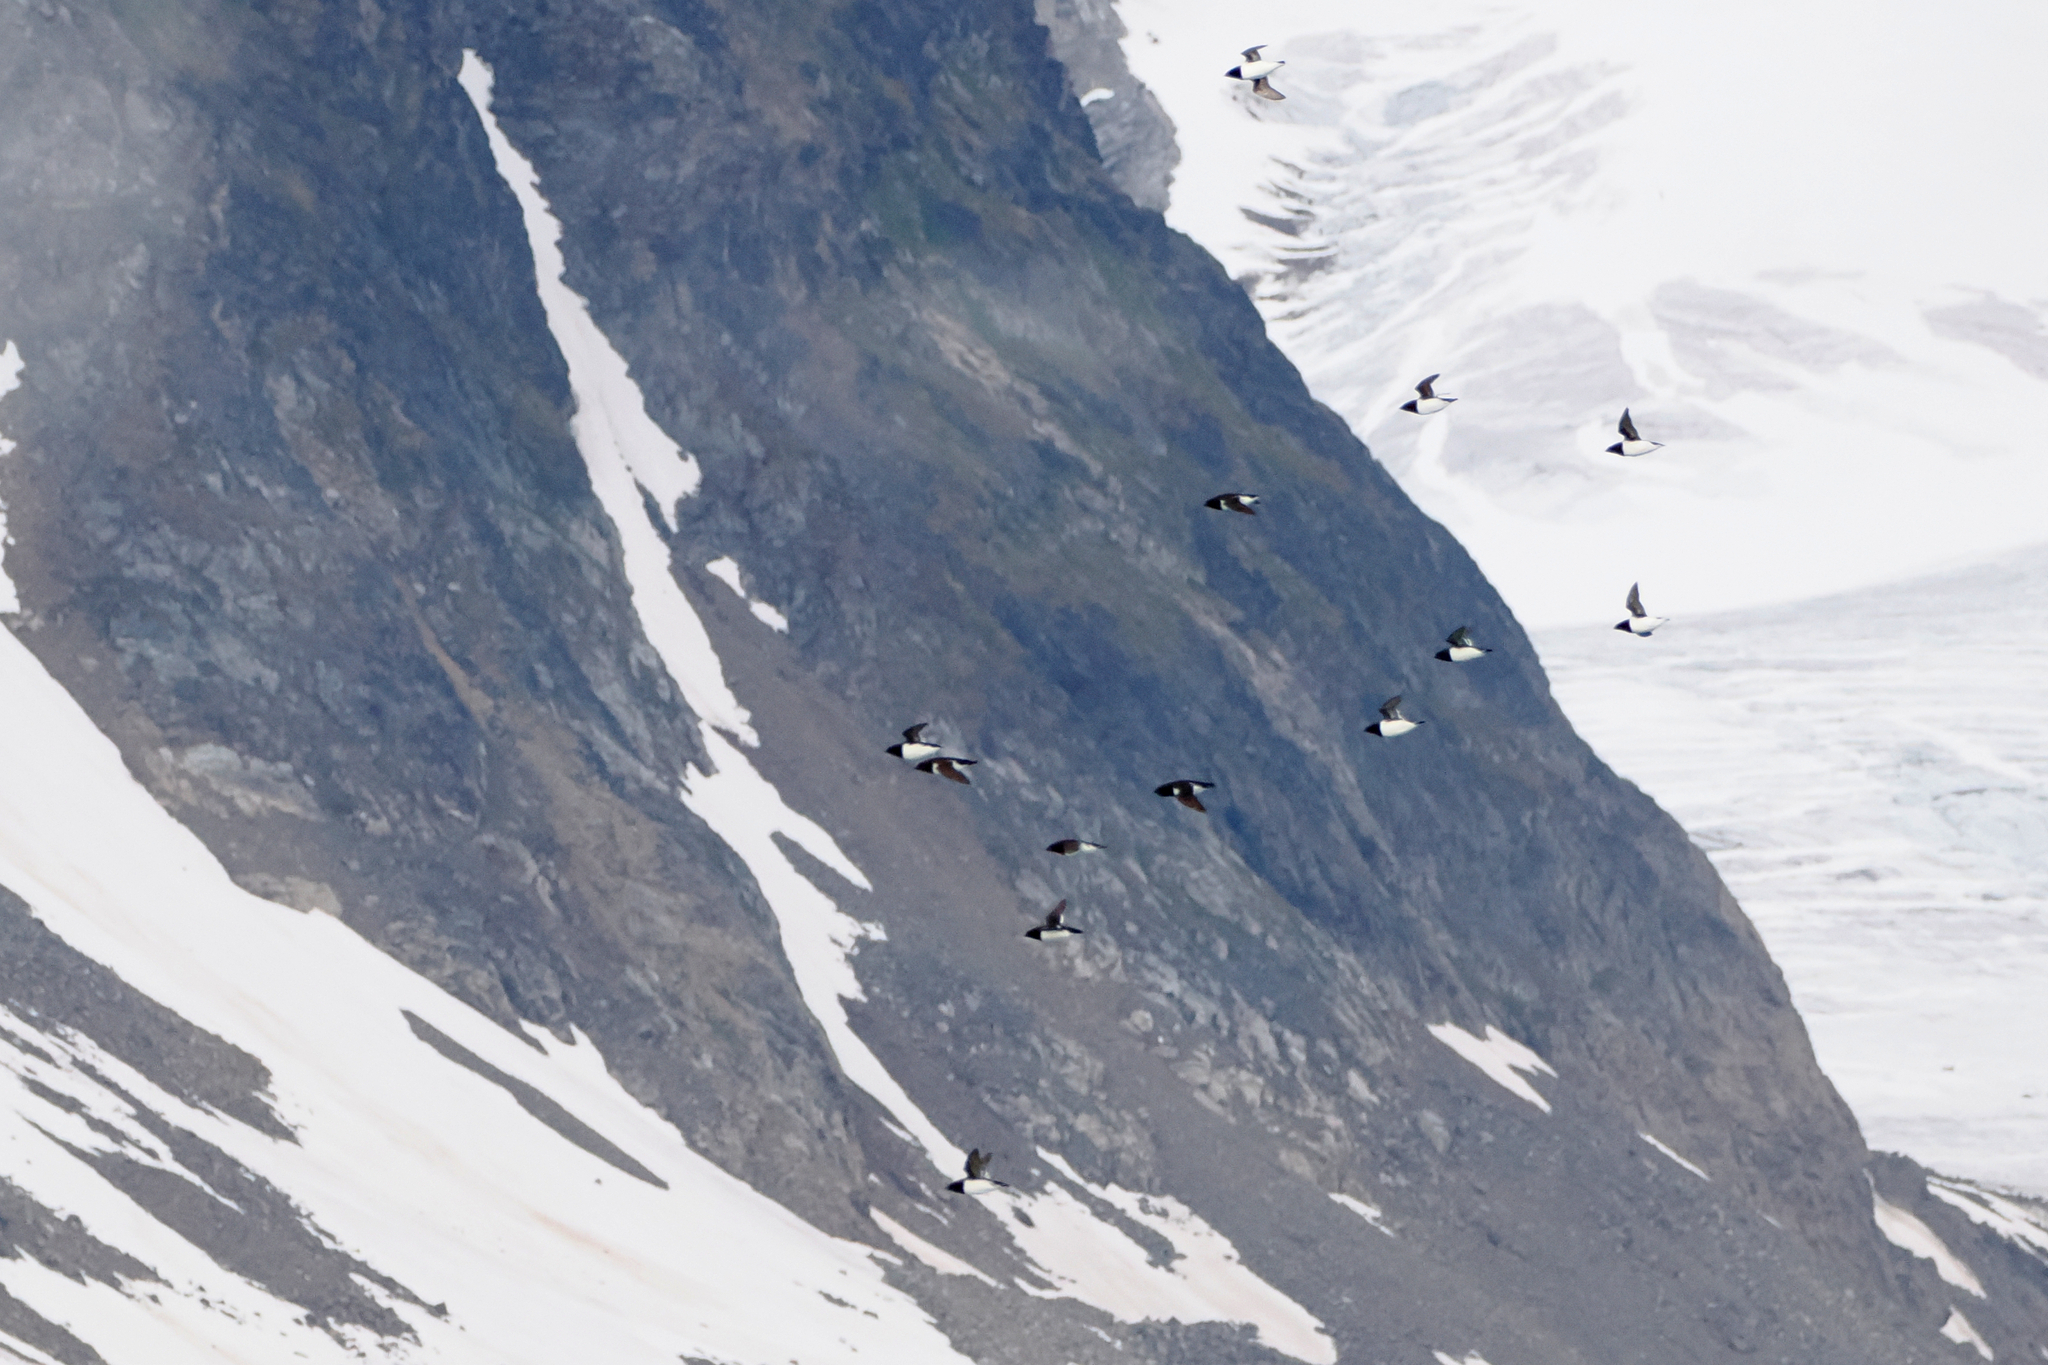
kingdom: Animalia
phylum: Chordata
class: Aves
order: Charadriiformes
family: Alcidae
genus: Alle
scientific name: Alle alle
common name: Little auk
